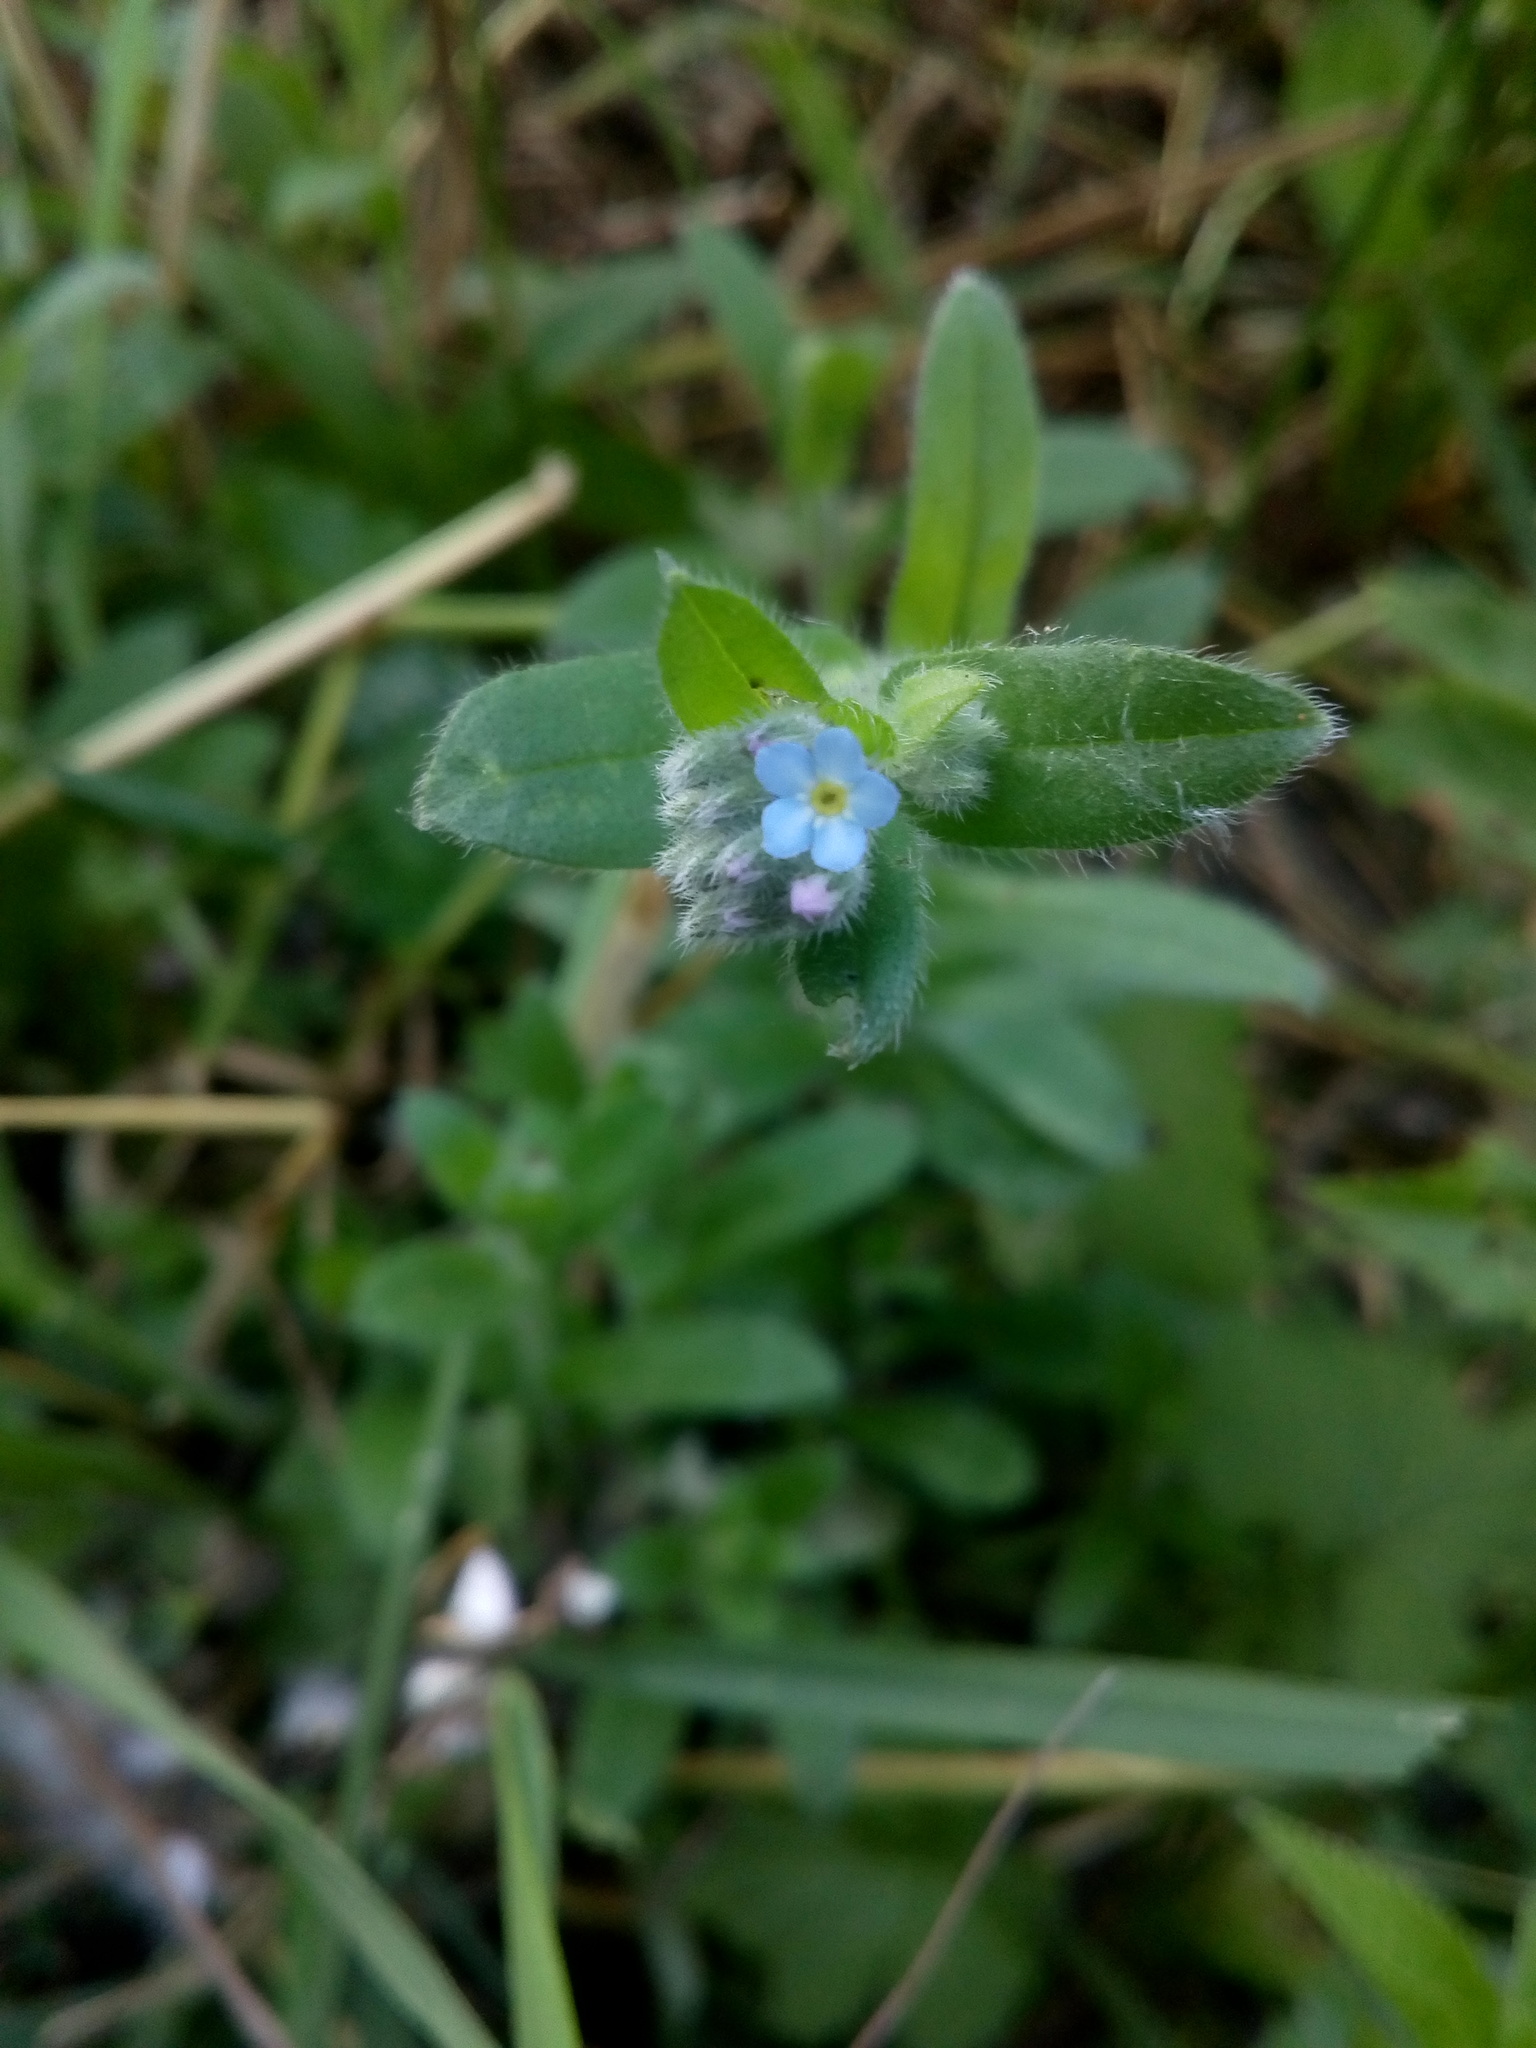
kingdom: Plantae
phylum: Tracheophyta
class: Magnoliopsida
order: Boraginales
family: Boraginaceae
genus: Myosotis
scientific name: Myosotis arvensis
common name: Field forget-me-not
